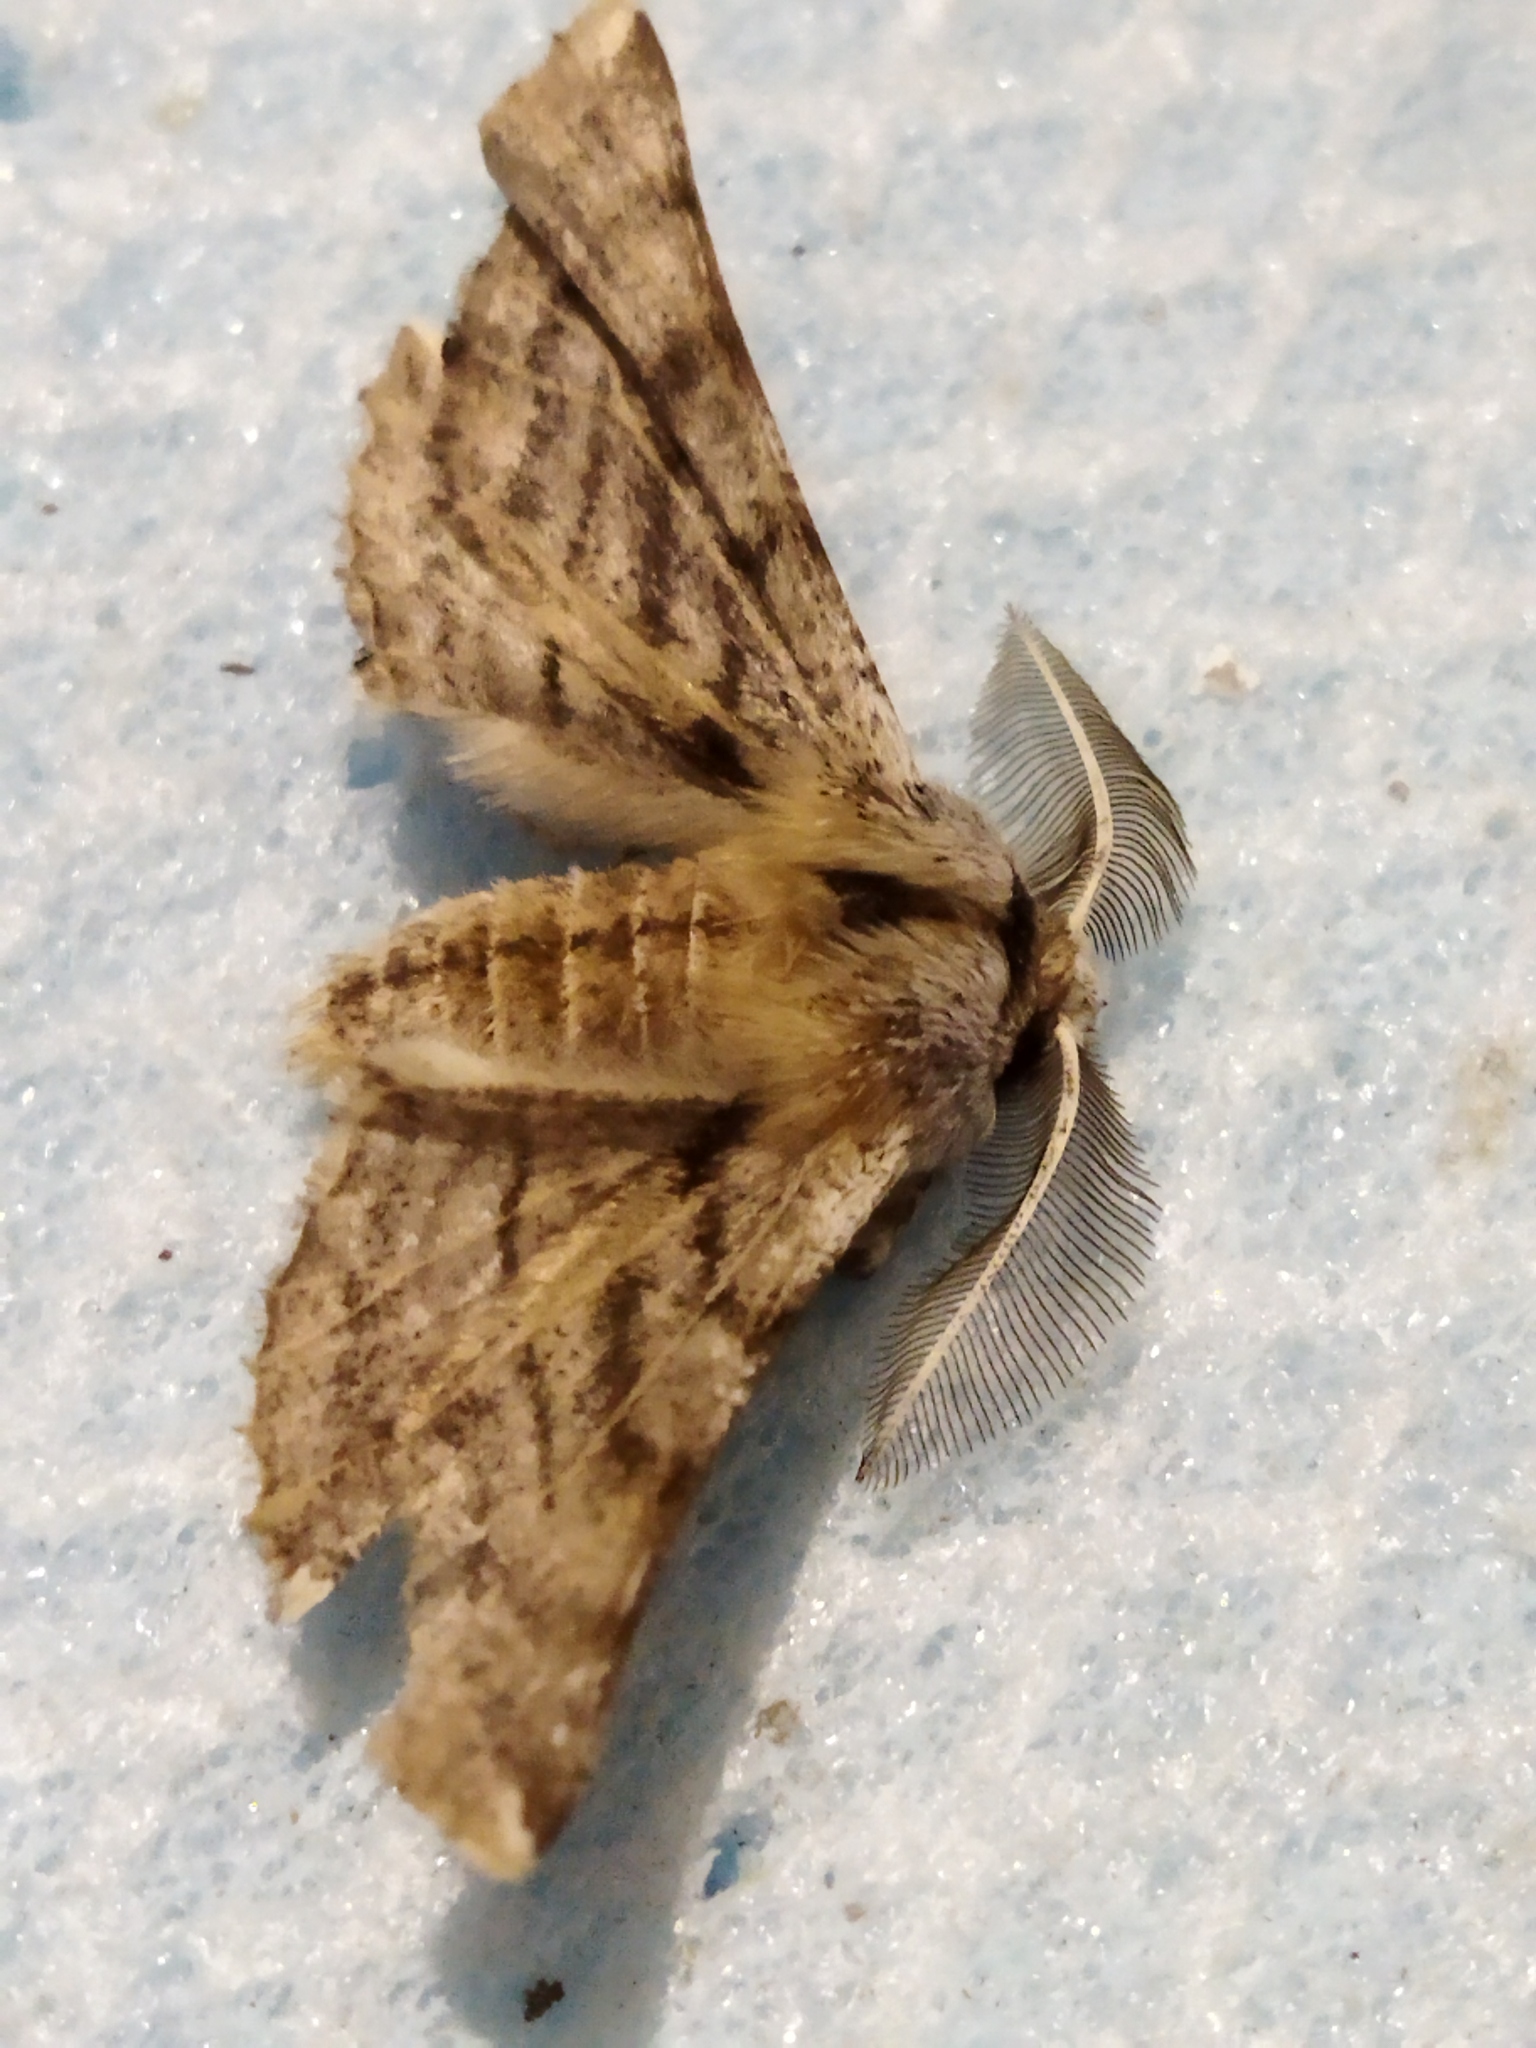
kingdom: Animalia
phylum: Arthropoda
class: Insecta
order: Lepidoptera
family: Geometridae
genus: Apochima
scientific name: Apochima flabellaria
